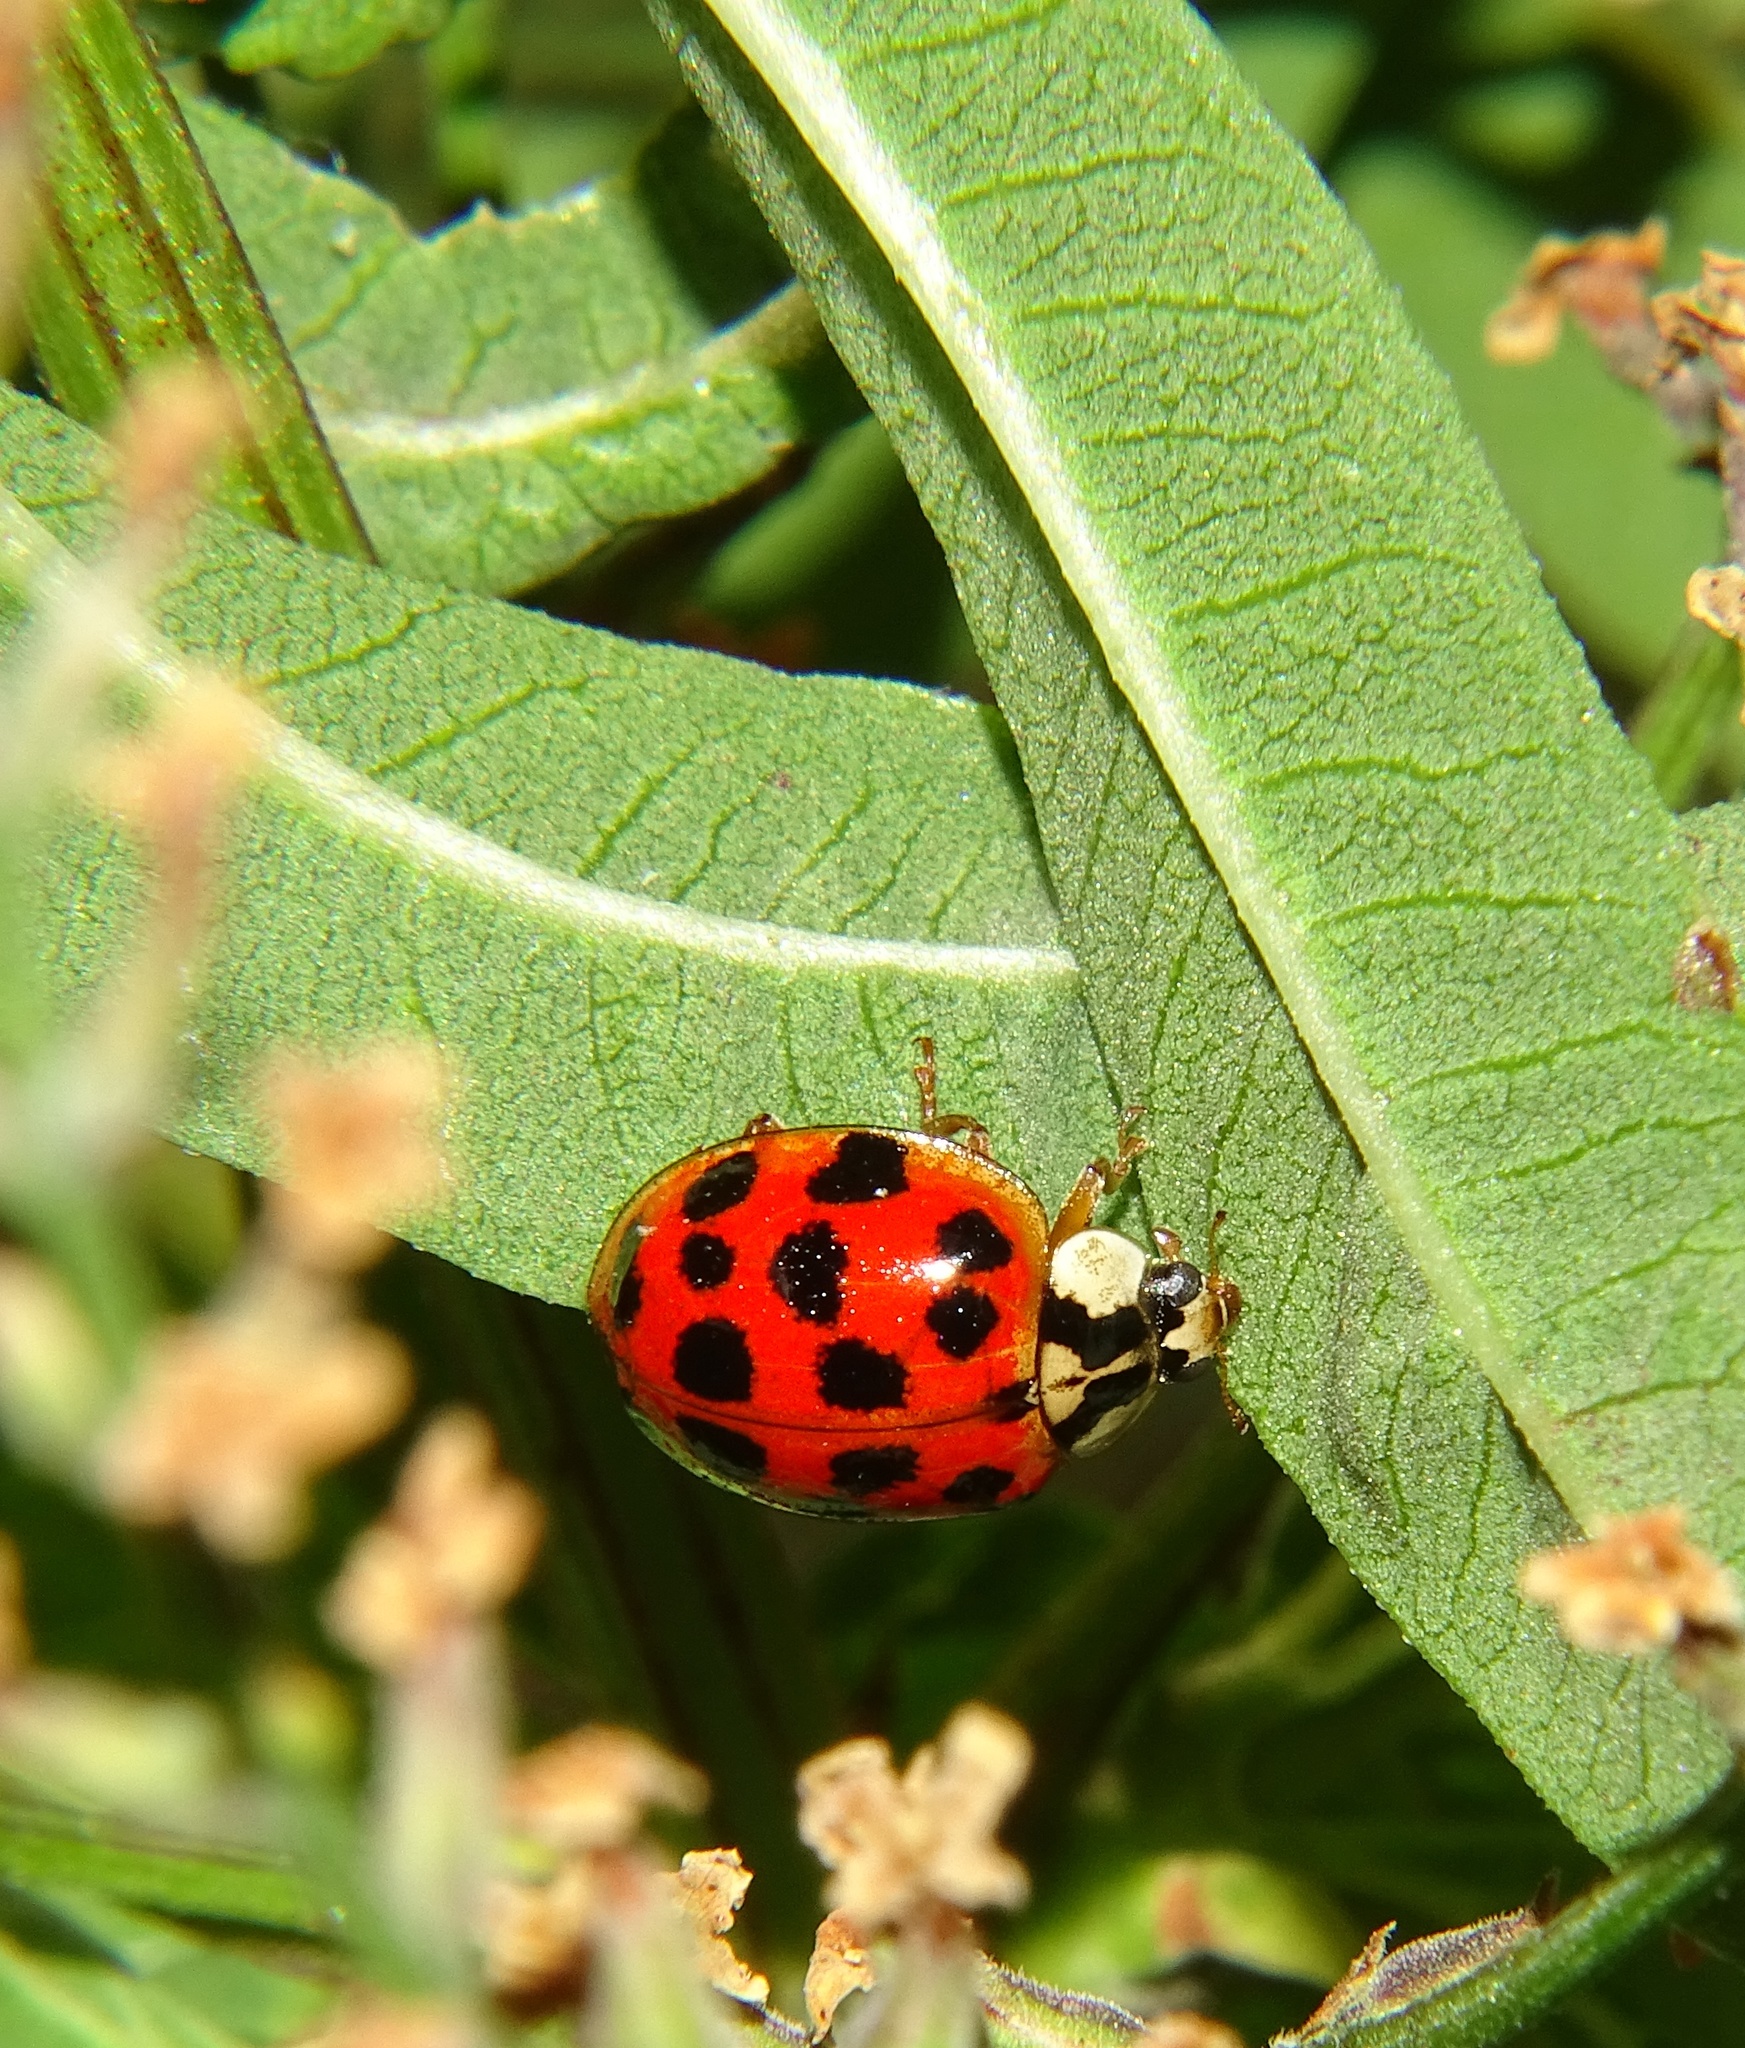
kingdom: Animalia
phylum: Arthropoda
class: Insecta
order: Coleoptera
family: Coccinellidae
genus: Harmonia
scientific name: Harmonia axyridis
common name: Harlequin ladybird
